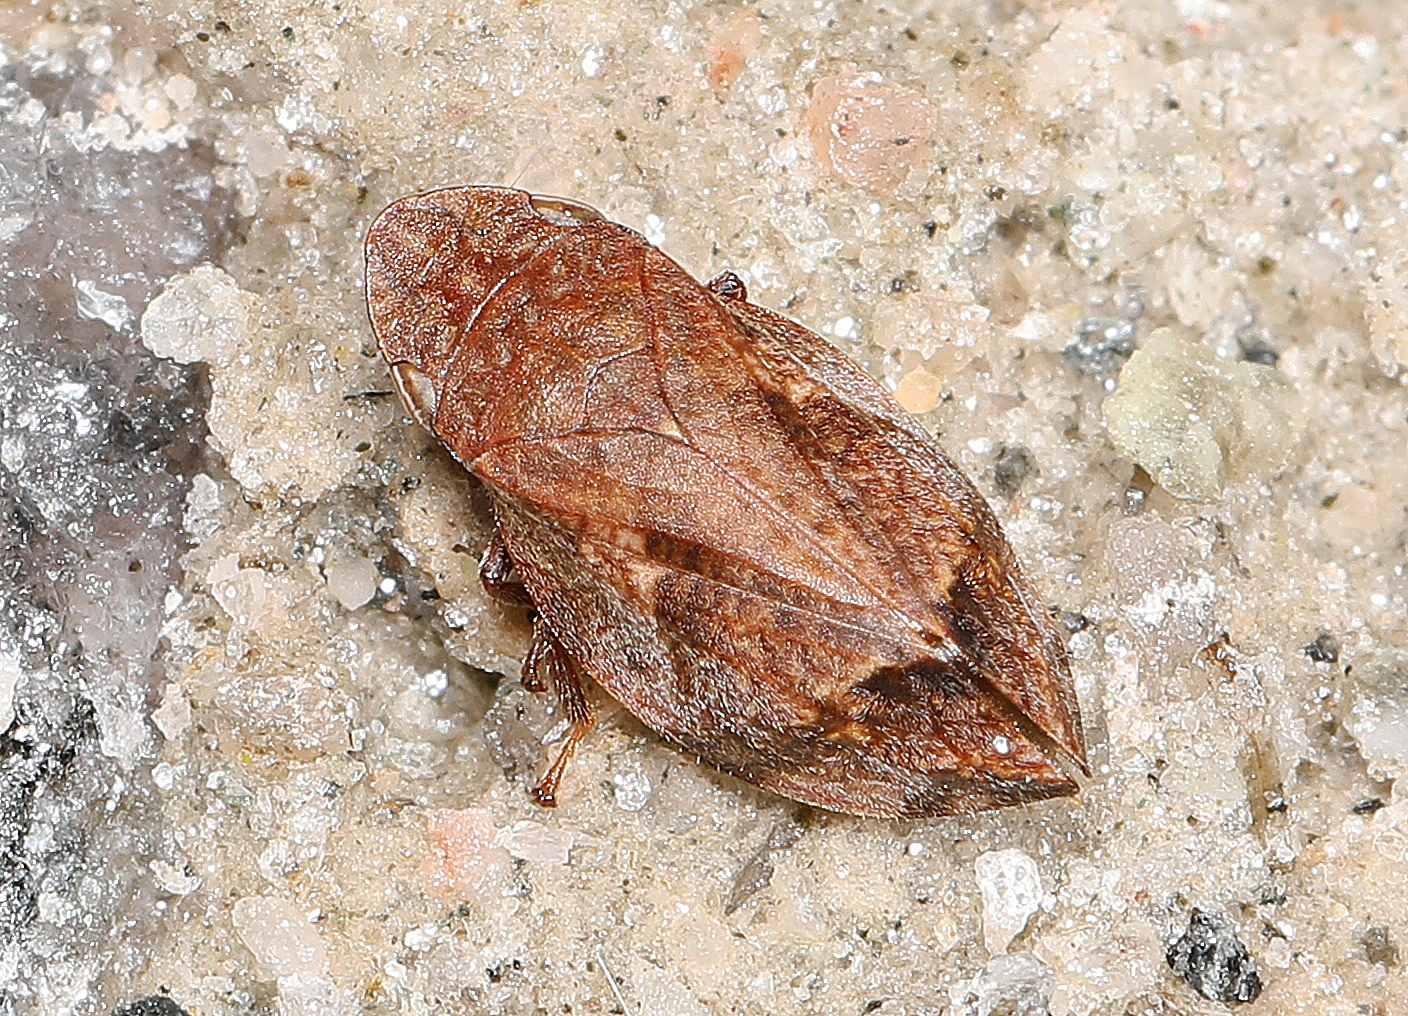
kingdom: Animalia
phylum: Arthropoda
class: Insecta
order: Hemiptera
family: Aphrophoridae
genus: Lepyronia
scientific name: Lepyronia quadrangularis
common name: Diamond-backed spittlebug
